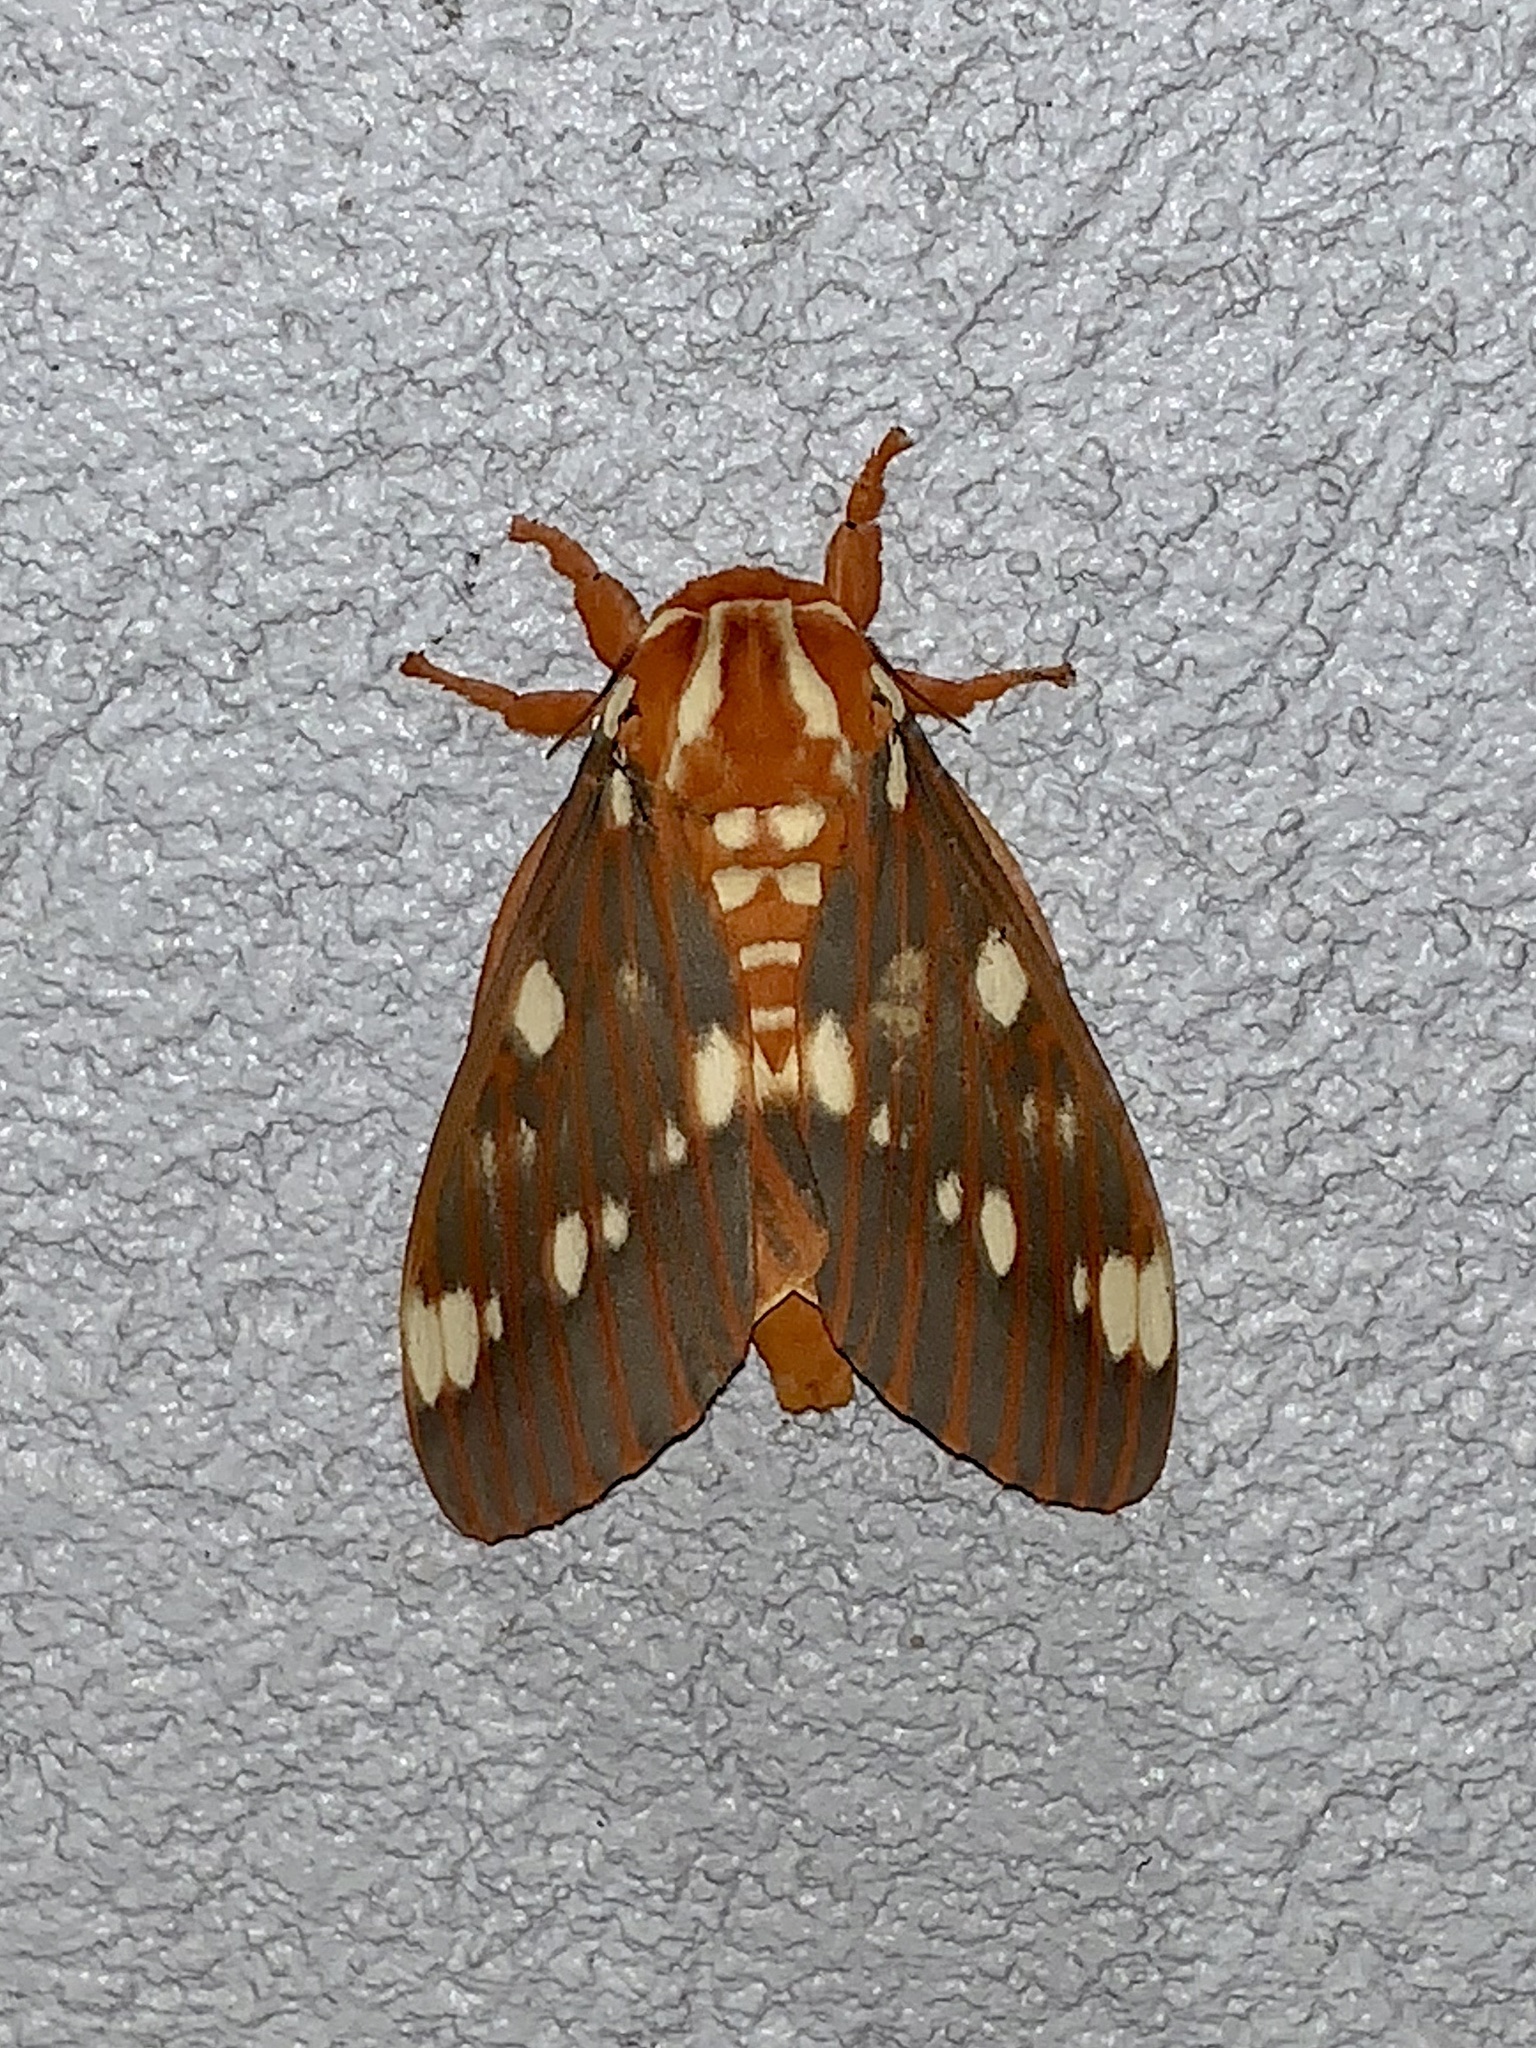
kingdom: Animalia
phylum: Arthropoda
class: Insecta
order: Lepidoptera
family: Saturniidae
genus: Citheronia
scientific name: Citheronia regalis
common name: Hickory horned devil
